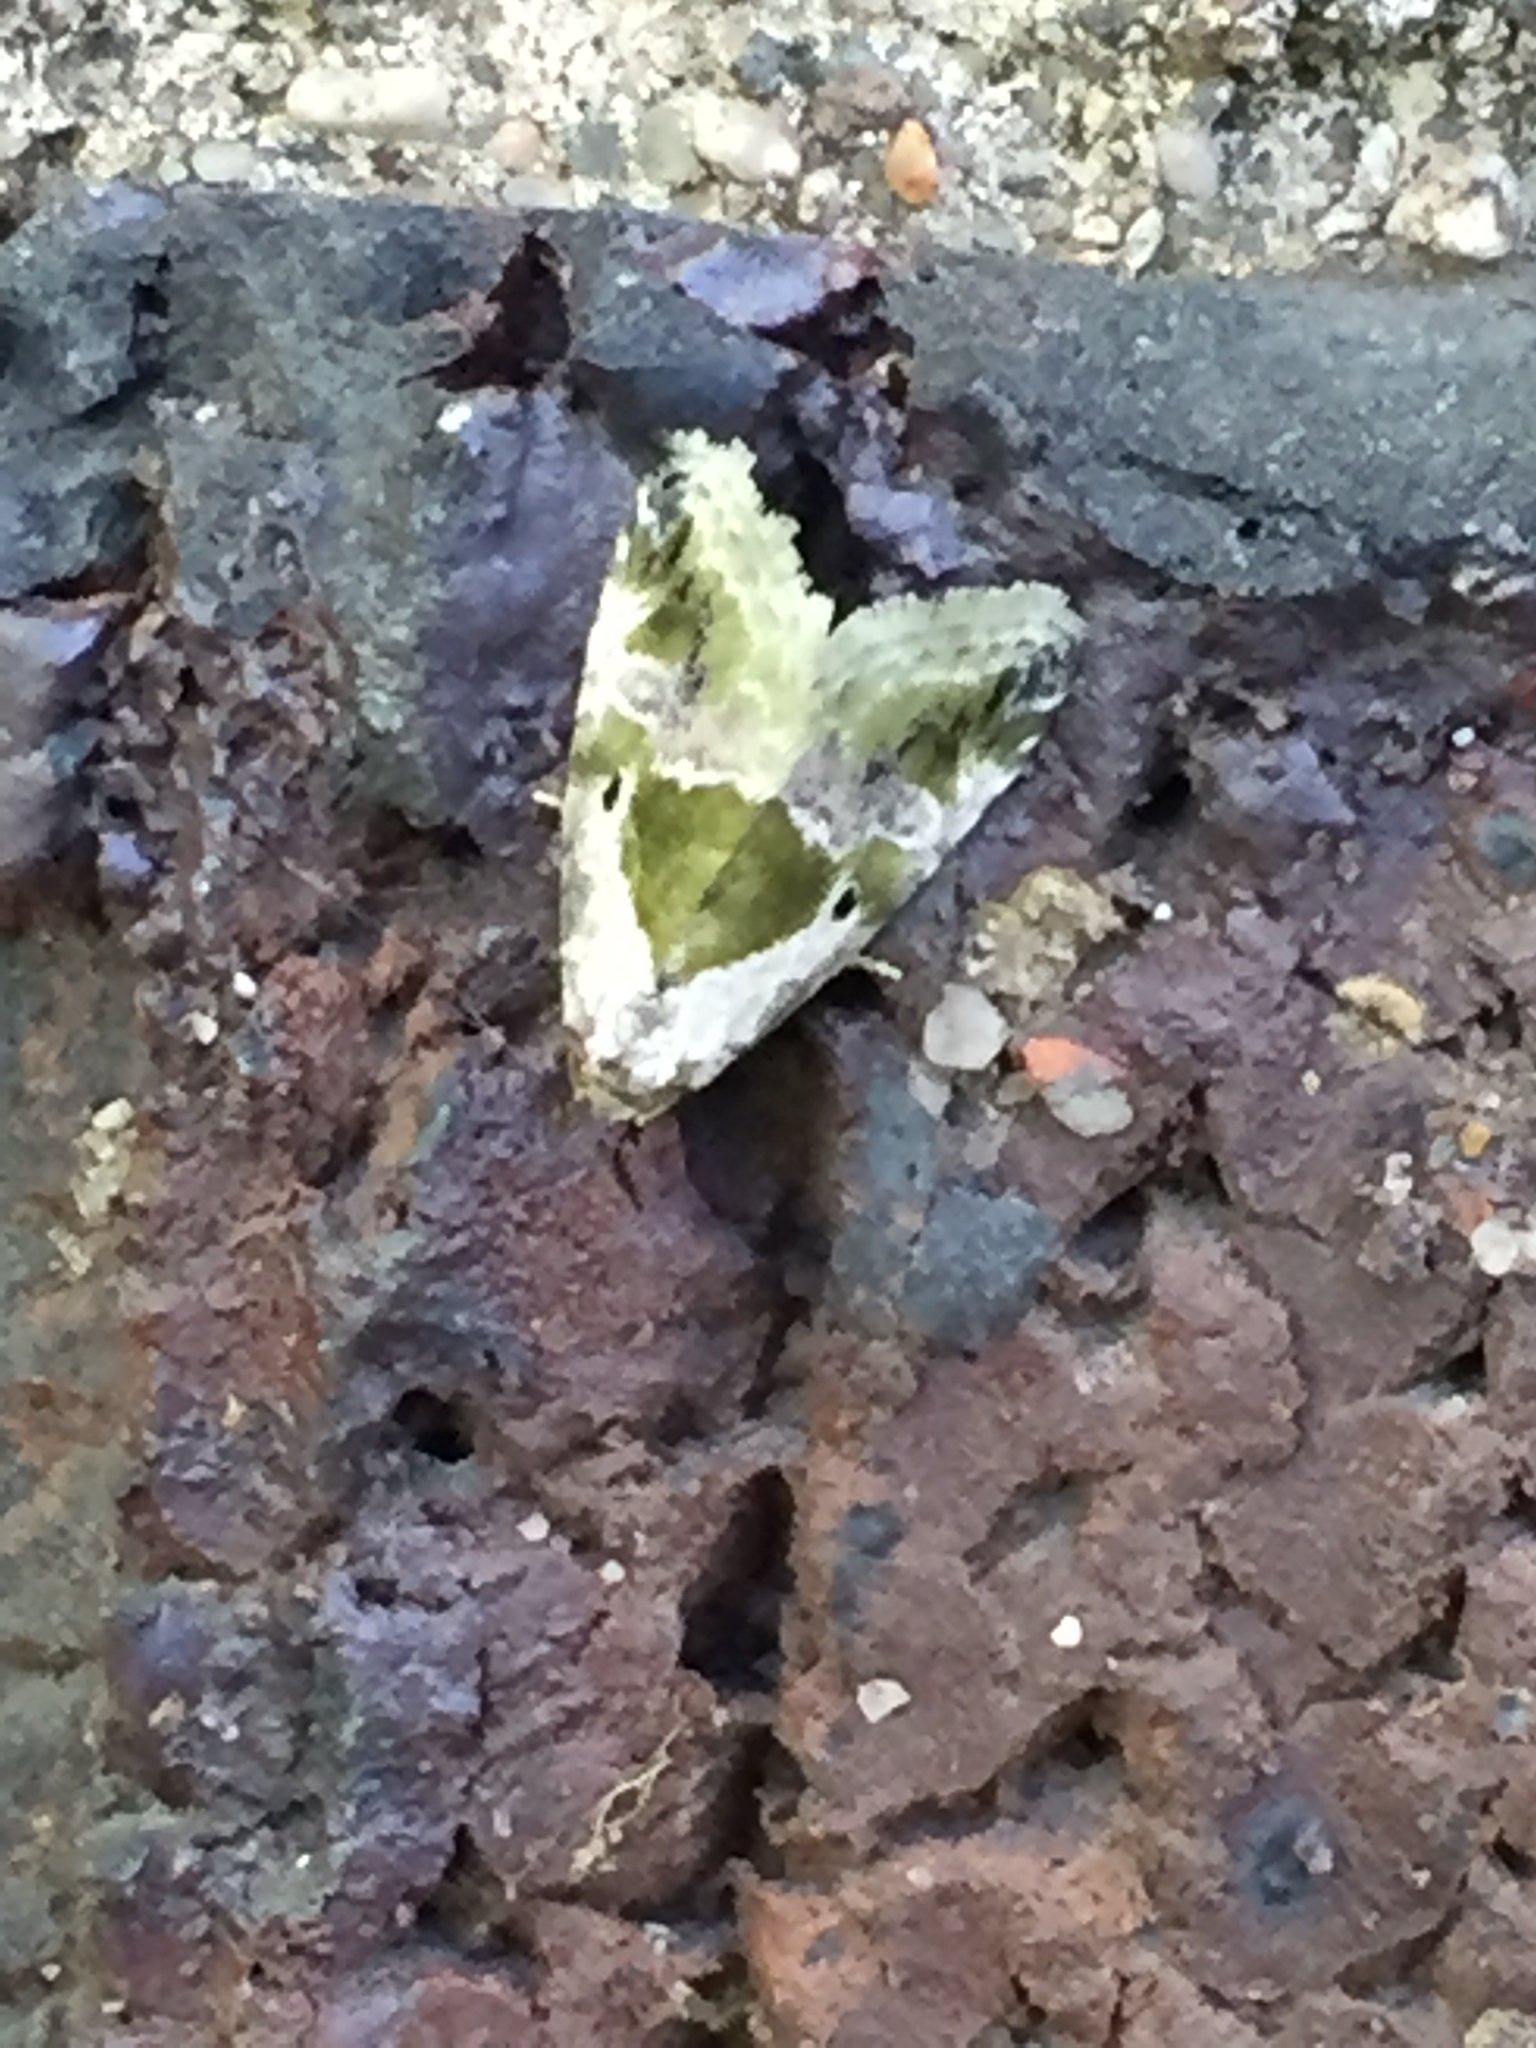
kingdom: Animalia
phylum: Arthropoda
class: Insecta
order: Lepidoptera
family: Noctuidae
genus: Maliattha
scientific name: Maliattha synochitis
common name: Black-dotted glyph
